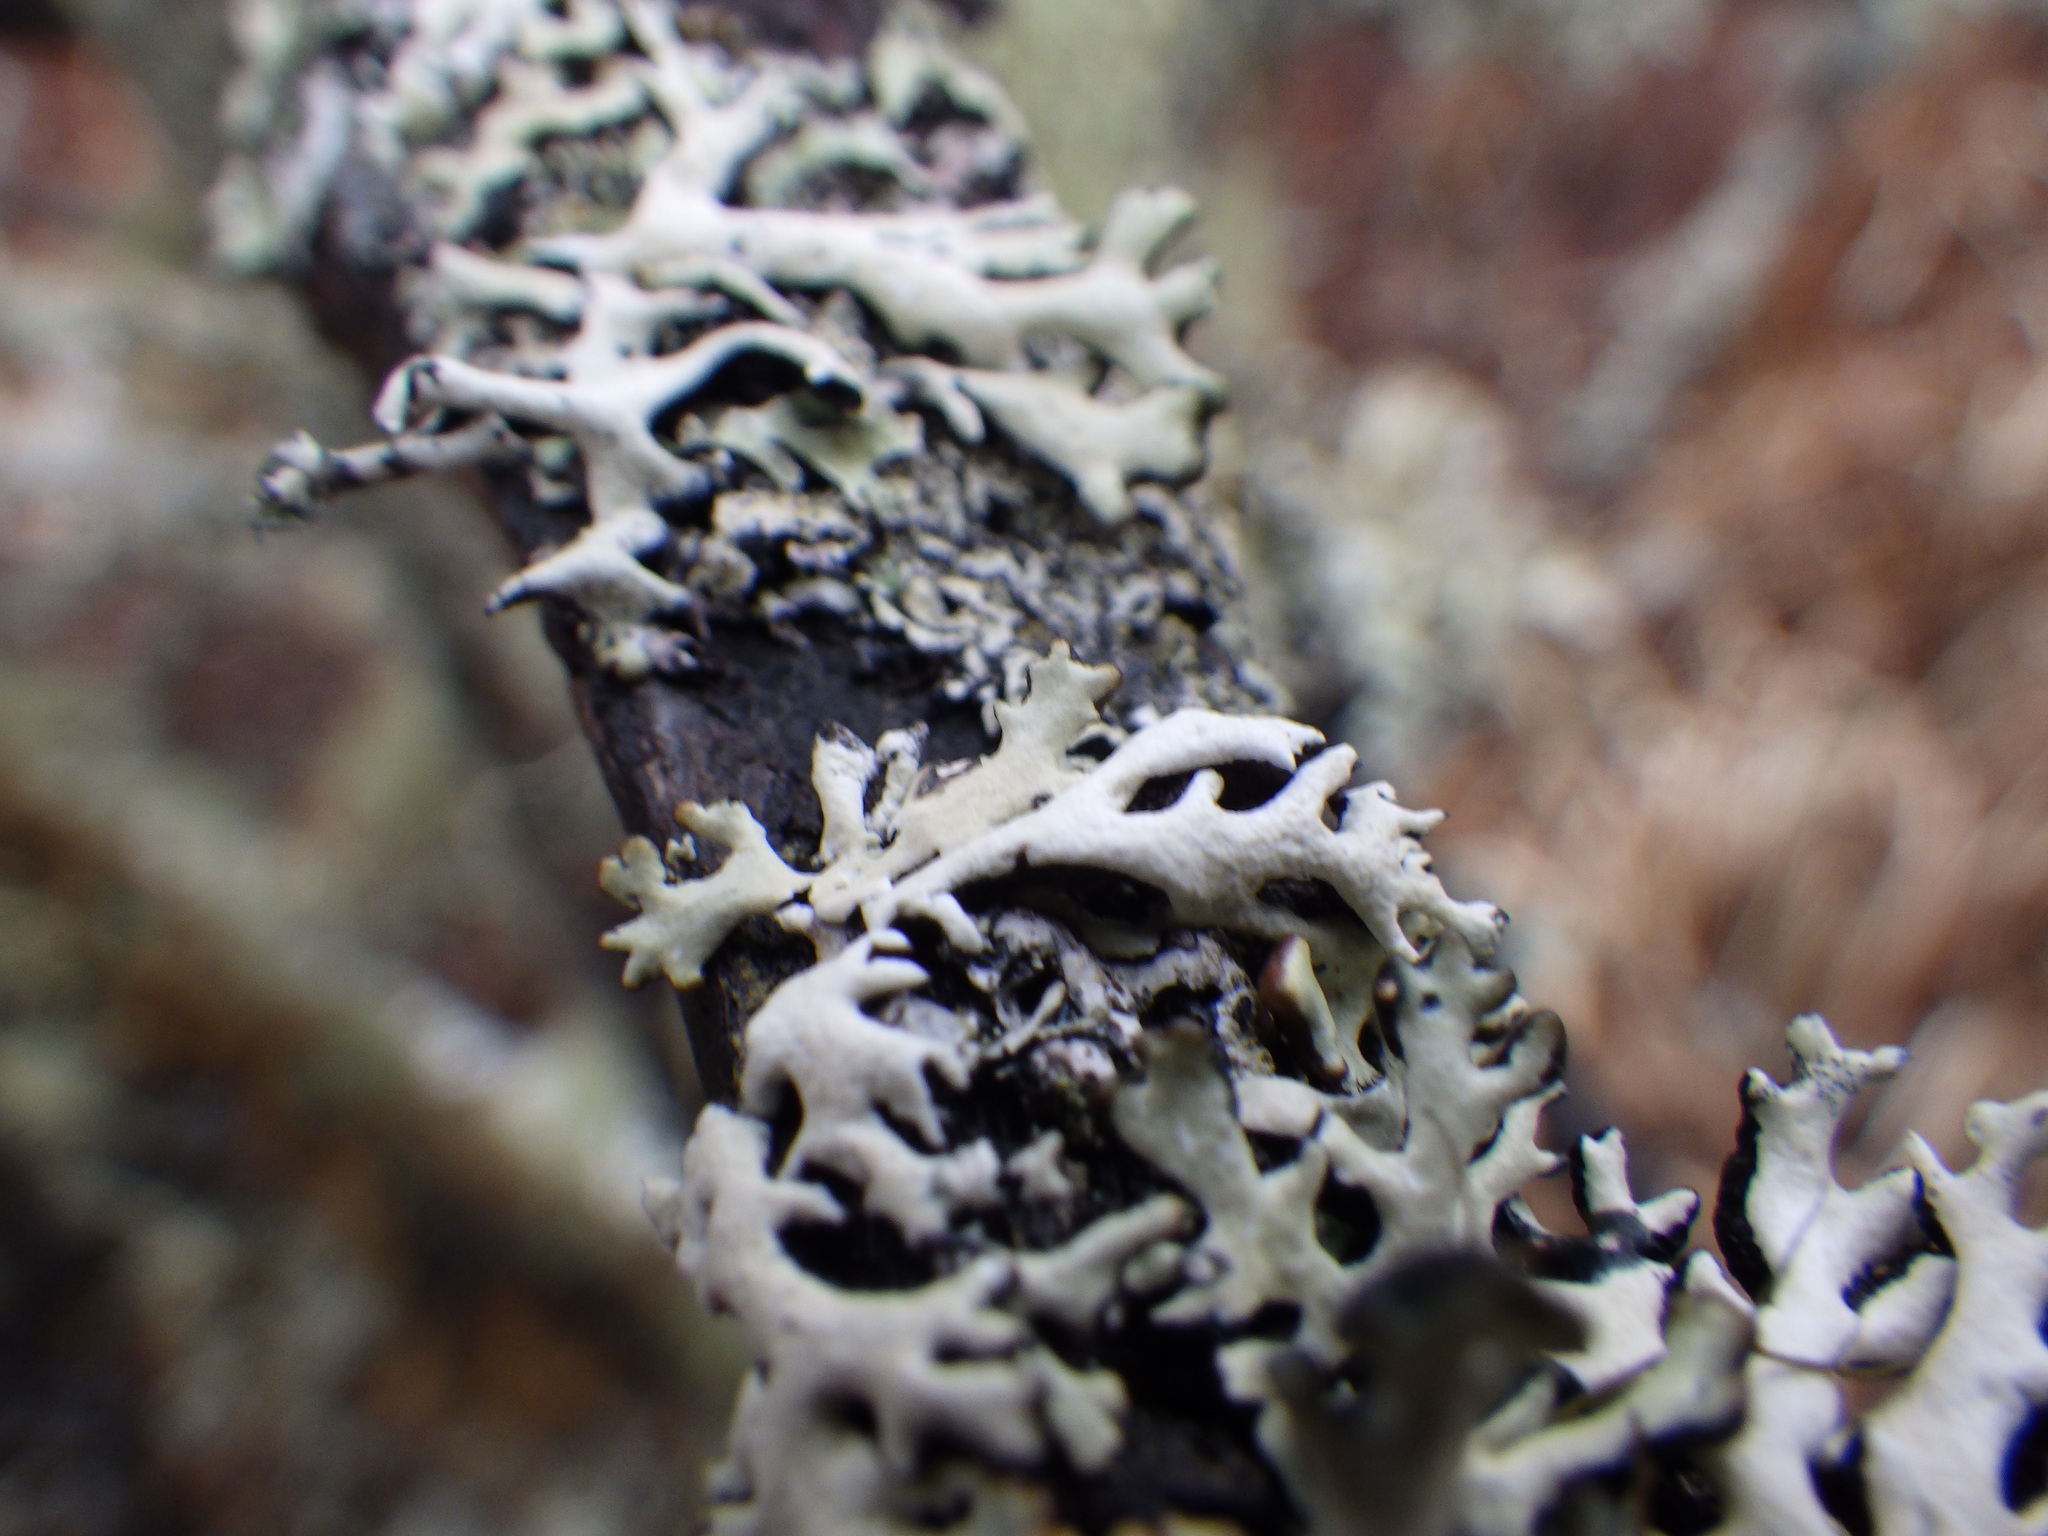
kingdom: Fungi
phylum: Ascomycota
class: Lecanoromycetes
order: Lecanorales
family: Parmeliaceae
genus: Hypogymnia
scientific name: Hypogymnia physodes
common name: Dark crottle
